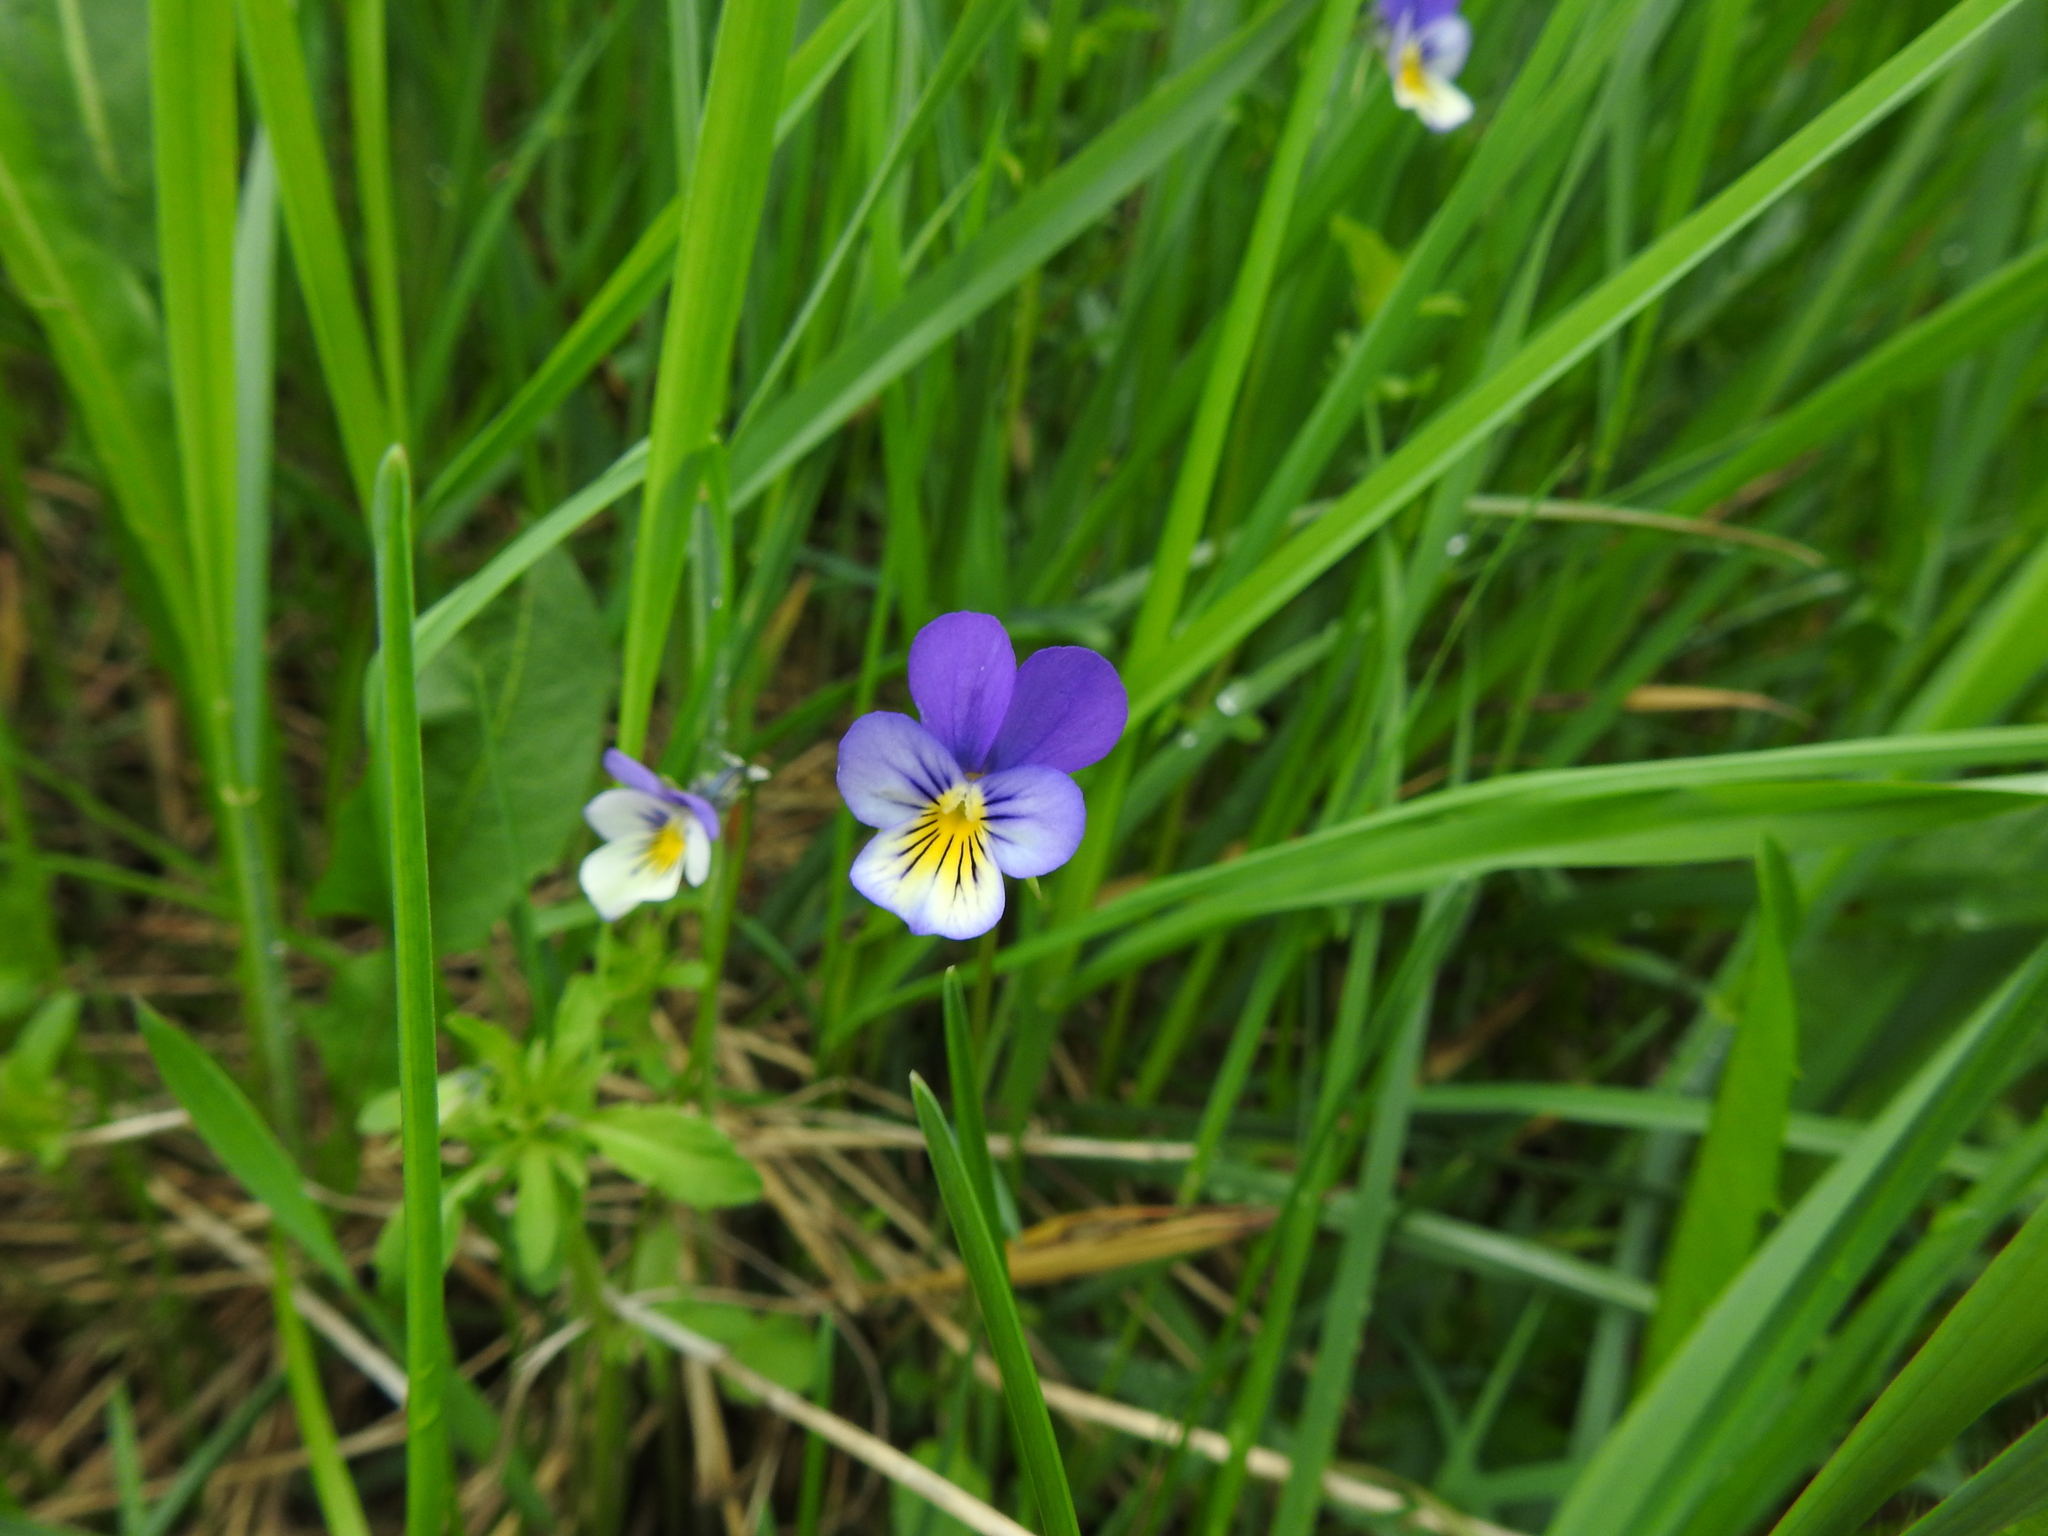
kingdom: Plantae
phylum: Tracheophyta
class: Magnoliopsida
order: Malpighiales
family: Violaceae
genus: Viola
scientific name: Viola tricolor
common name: Pansy
